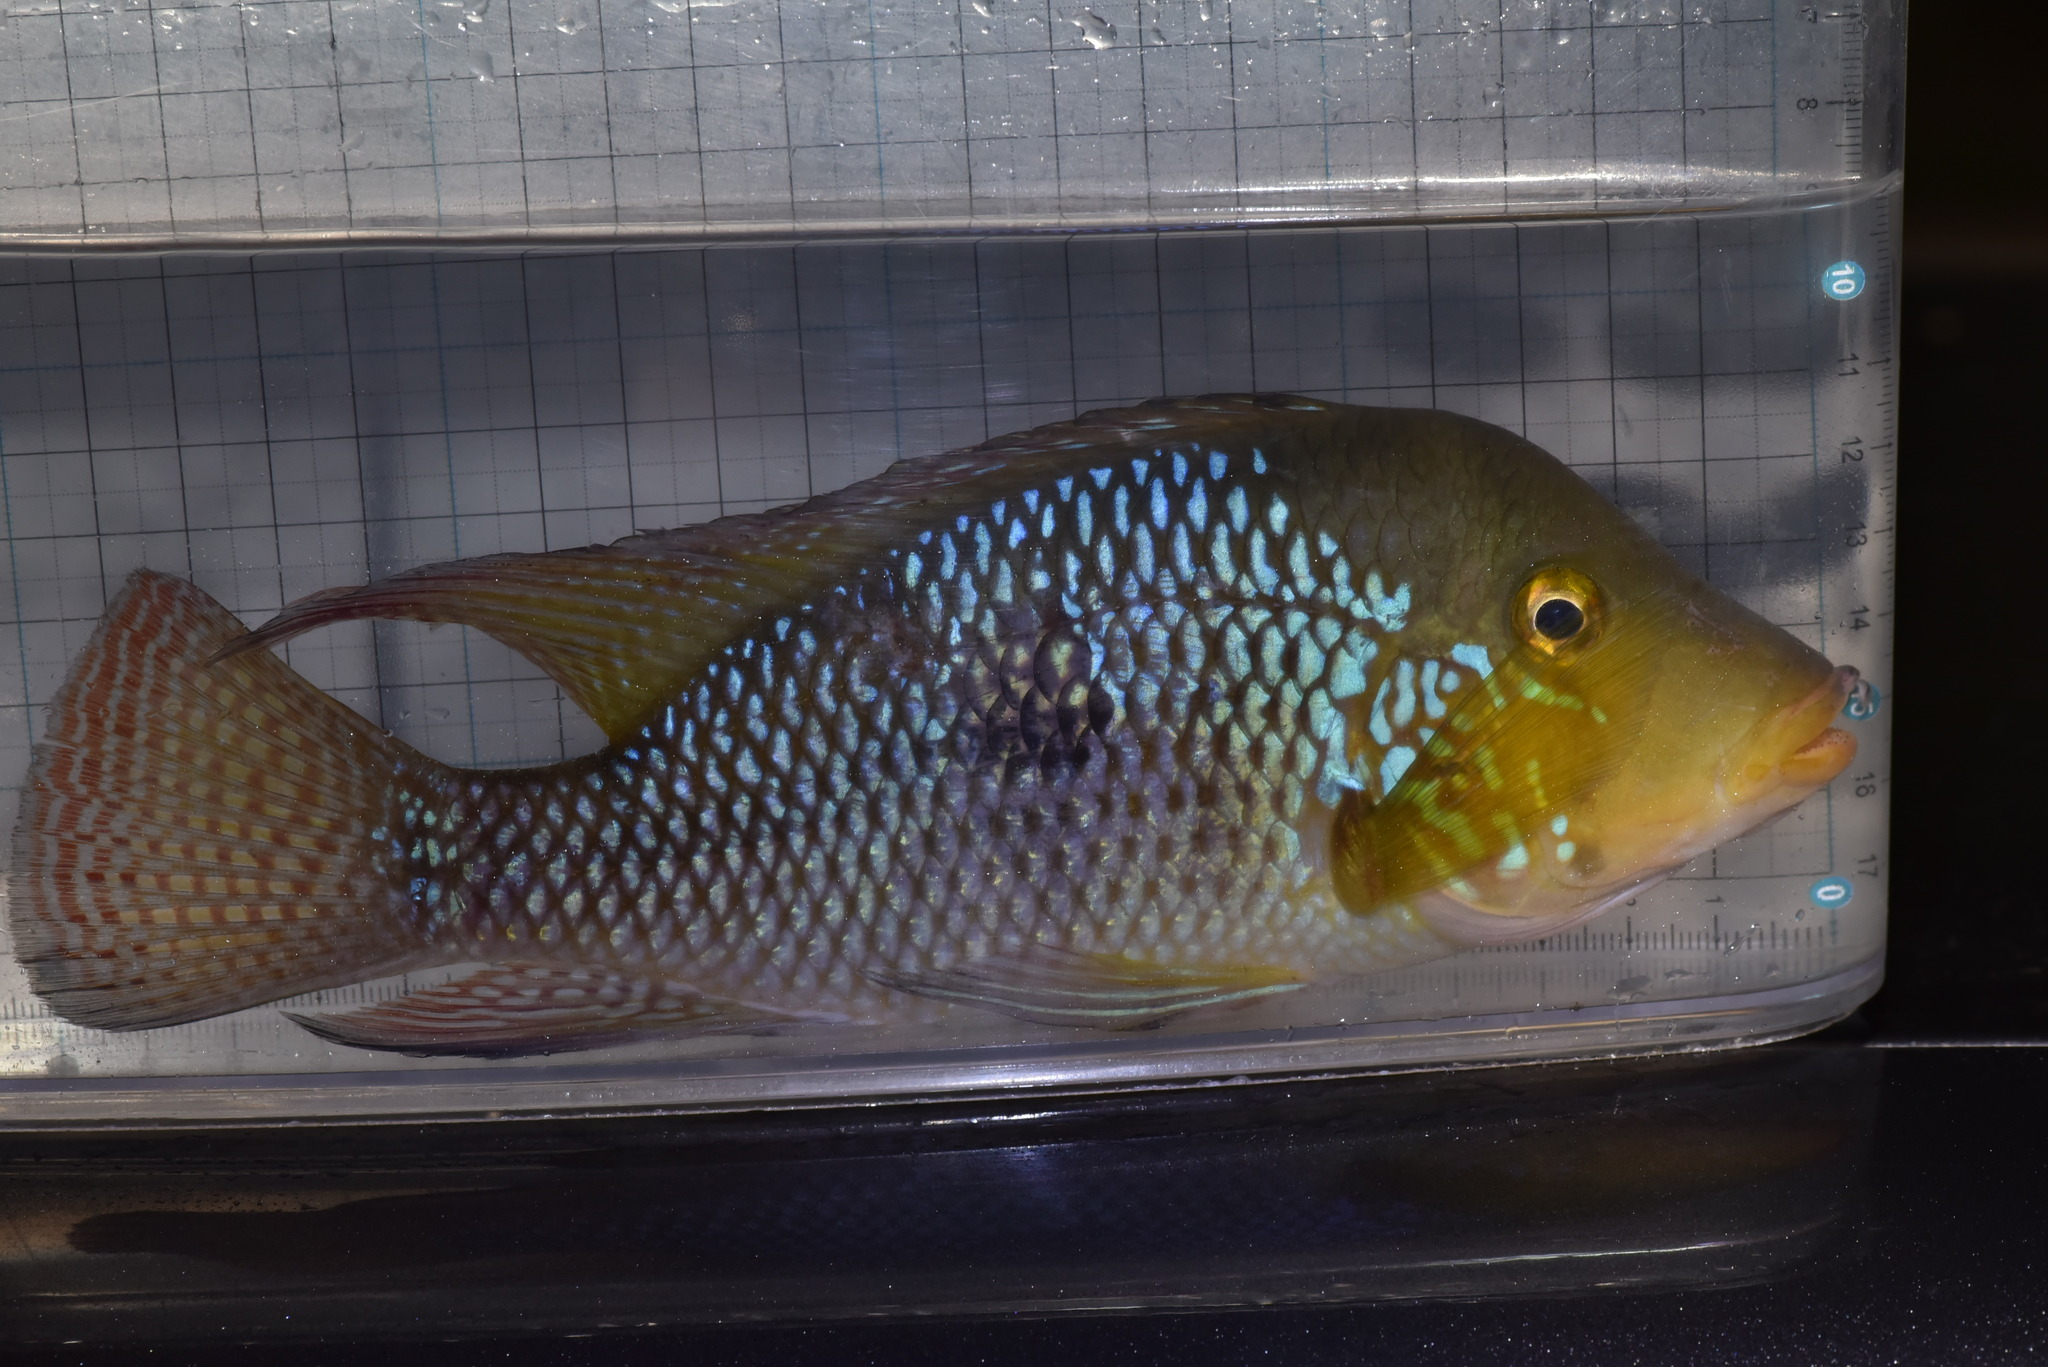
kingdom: Animalia
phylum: Chordata
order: Perciformes
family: Cichlidae
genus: Geophagus
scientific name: Geophagus brasiliensis
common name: Braziliensis
